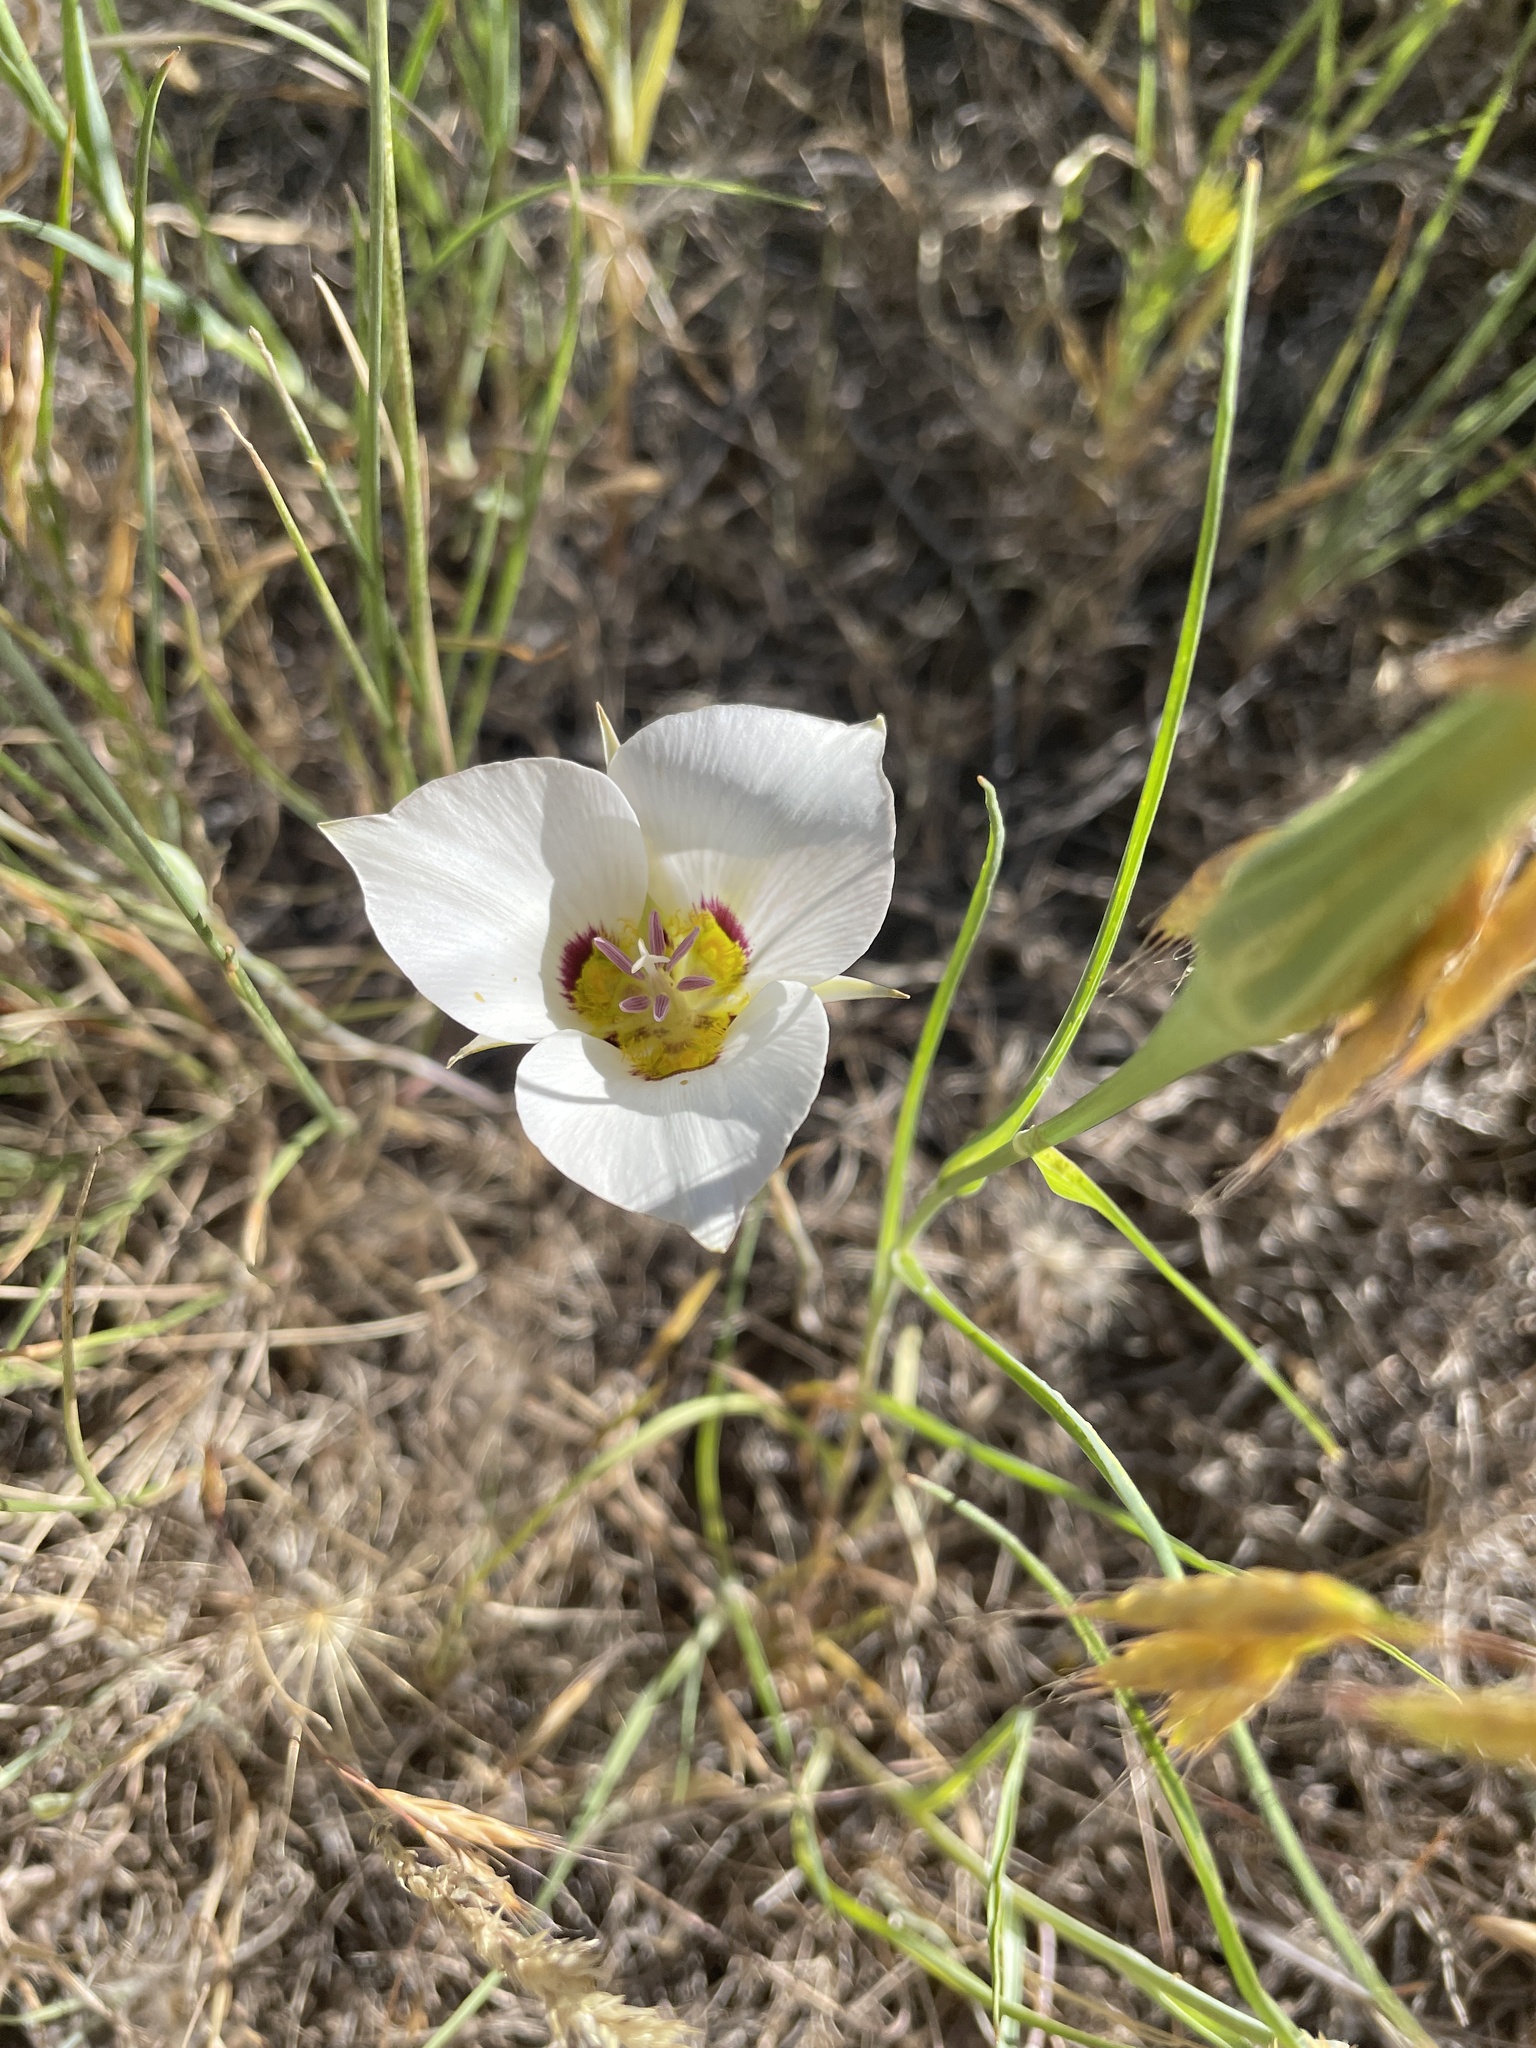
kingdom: Plantae
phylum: Tracheophyta
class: Liliopsida
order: Liliales
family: Liliaceae
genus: Calochortus
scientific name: Calochortus nuttallii
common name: Sego-lily
